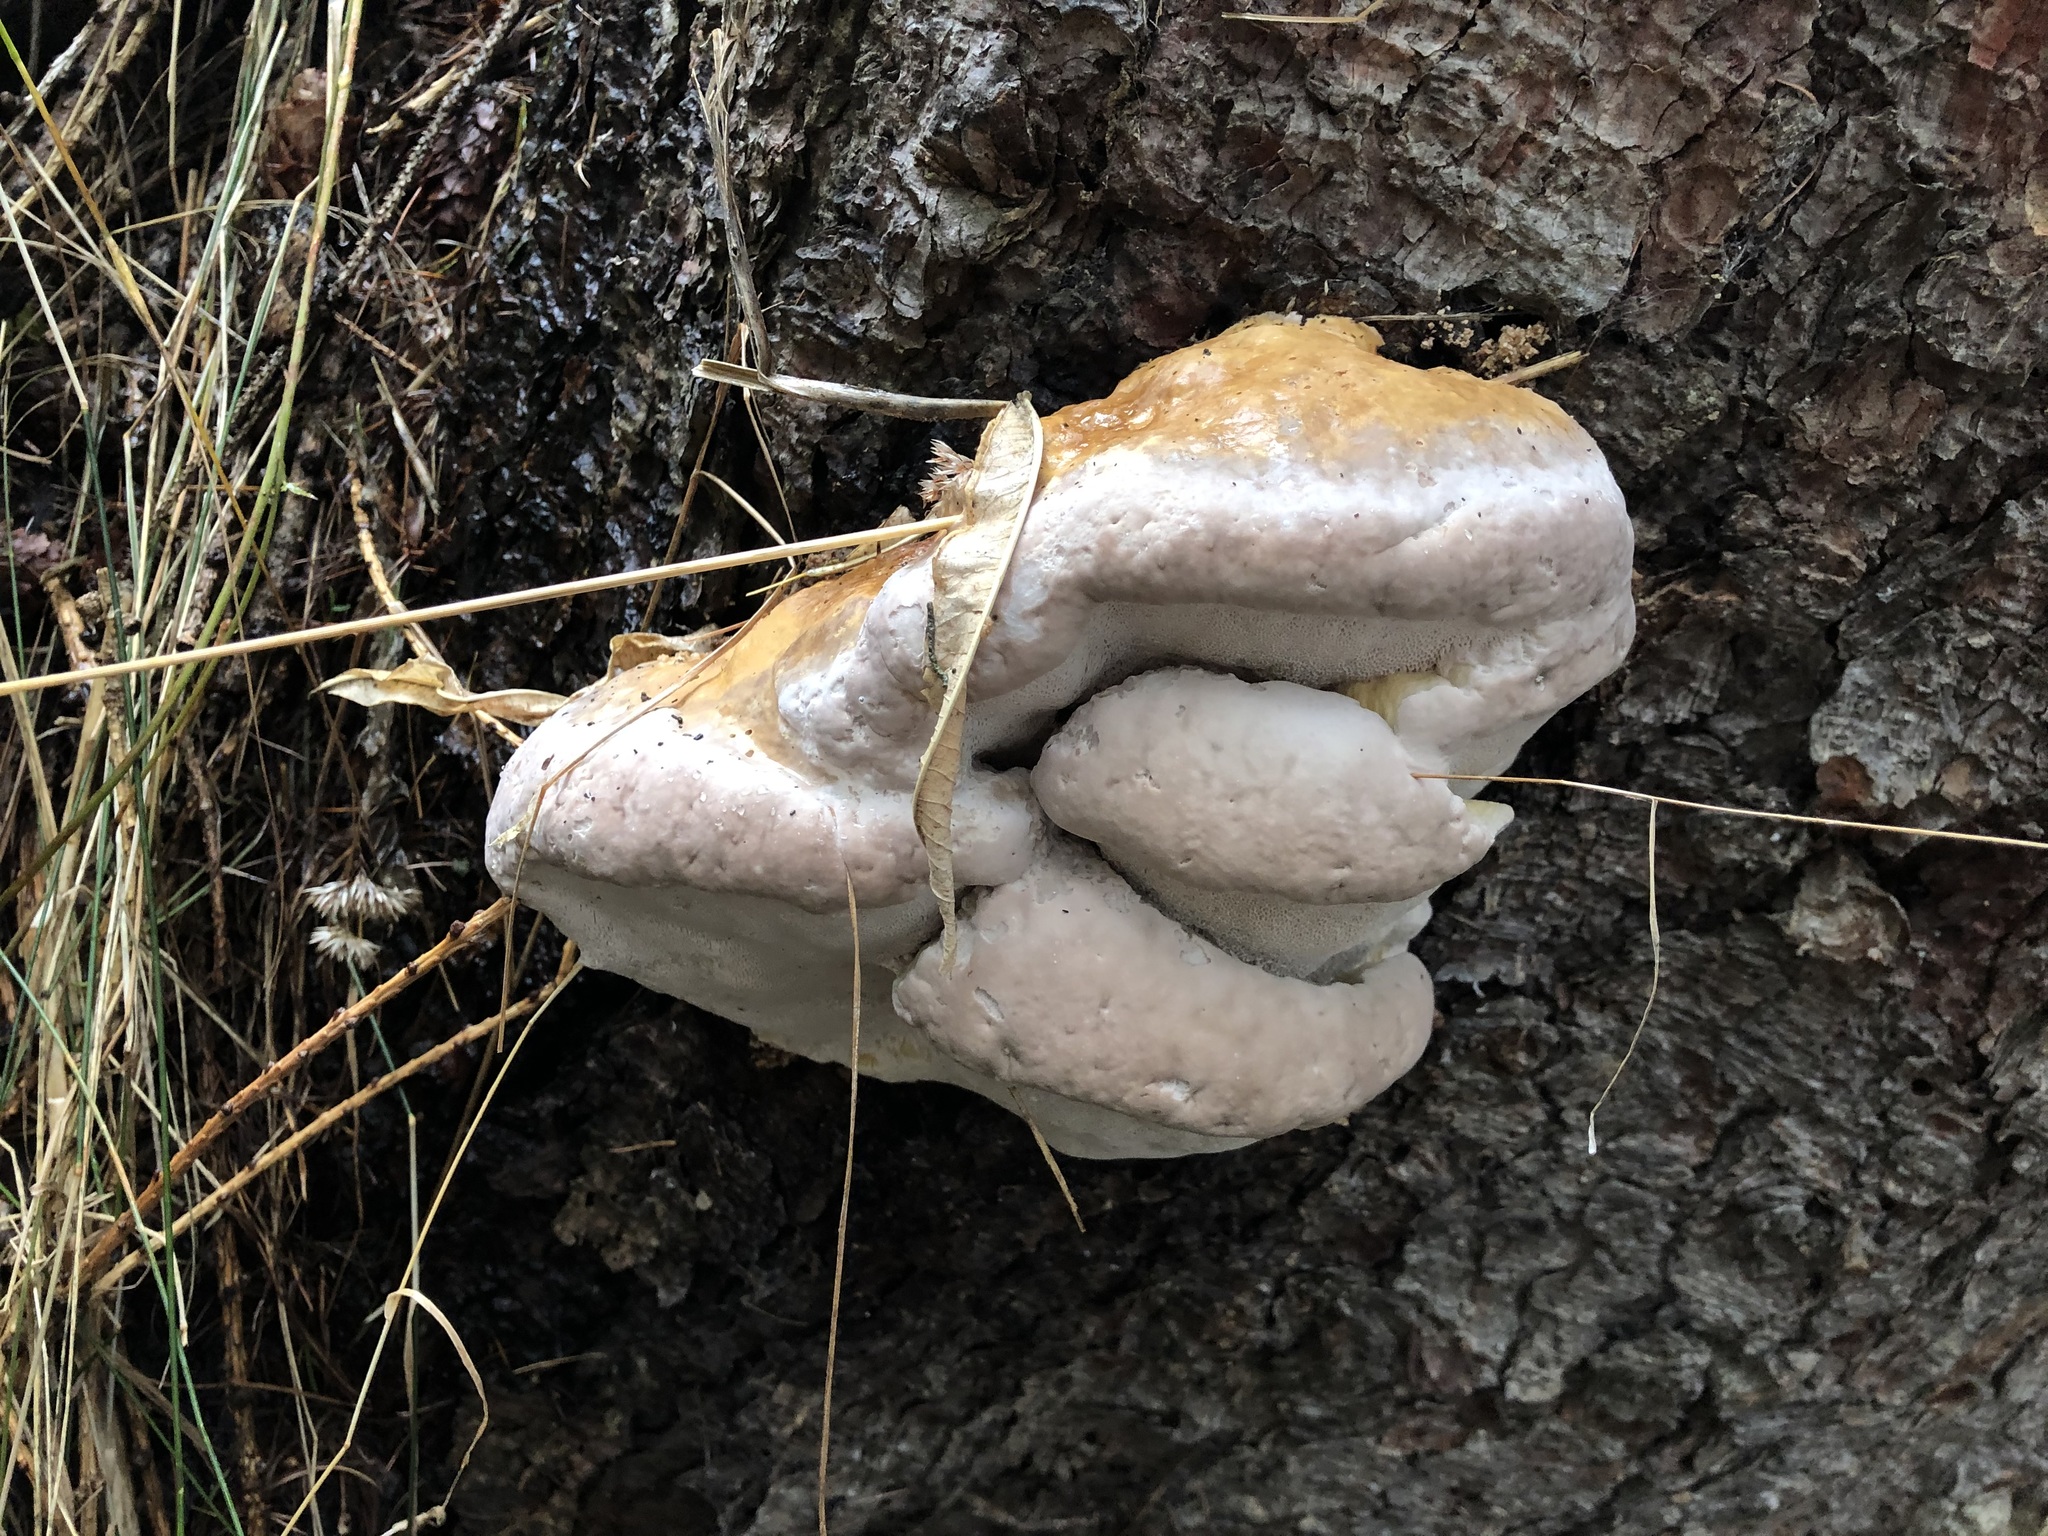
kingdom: Fungi
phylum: Basidiomycota
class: Agaricomycetes
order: Polyporales
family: Fomitopsidaceae
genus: Fomitopsis
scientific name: Fomitopsis pinicola
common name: Red-belted bracket
